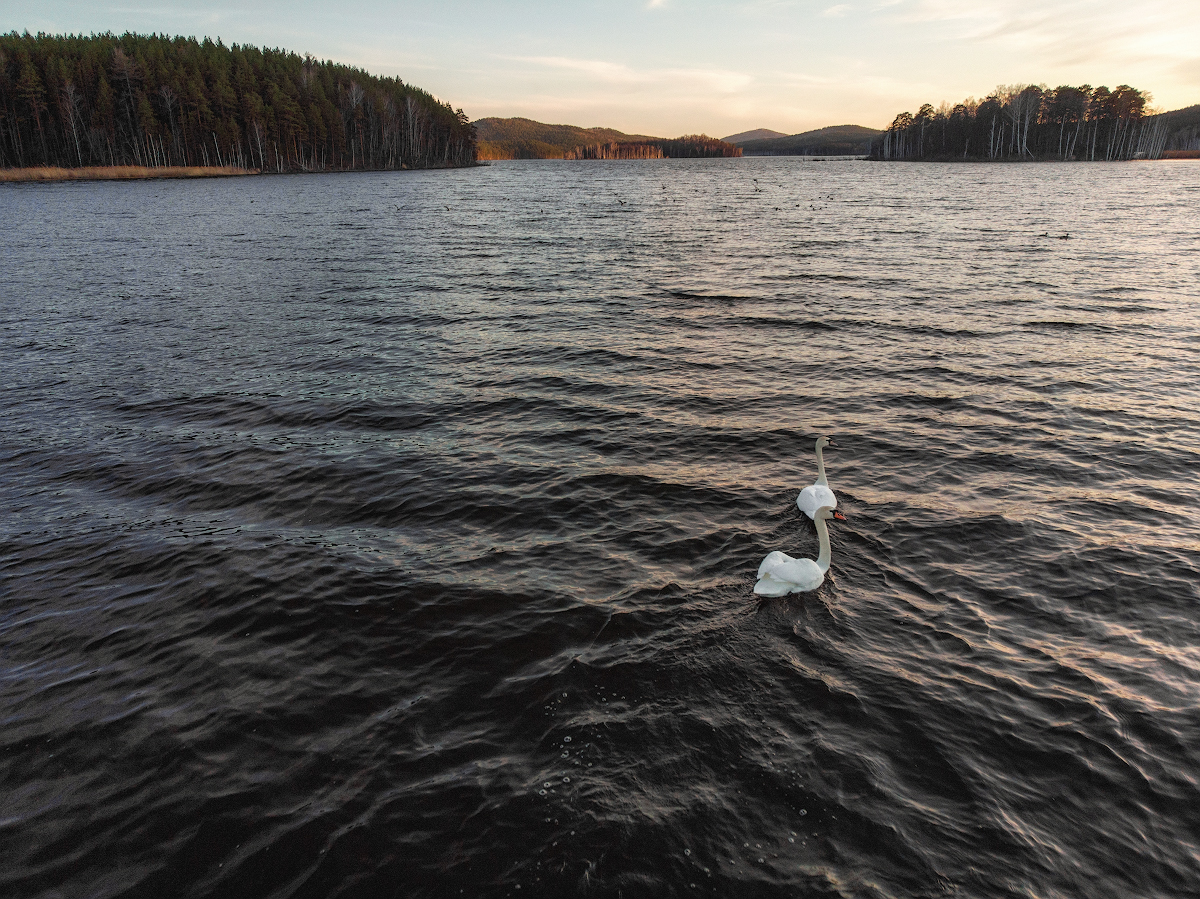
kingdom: Animalia
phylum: Chordata
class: Aves
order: Anseriformes
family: Anatidae
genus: Cygnus
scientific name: Cygnus olor
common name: Mute swan
